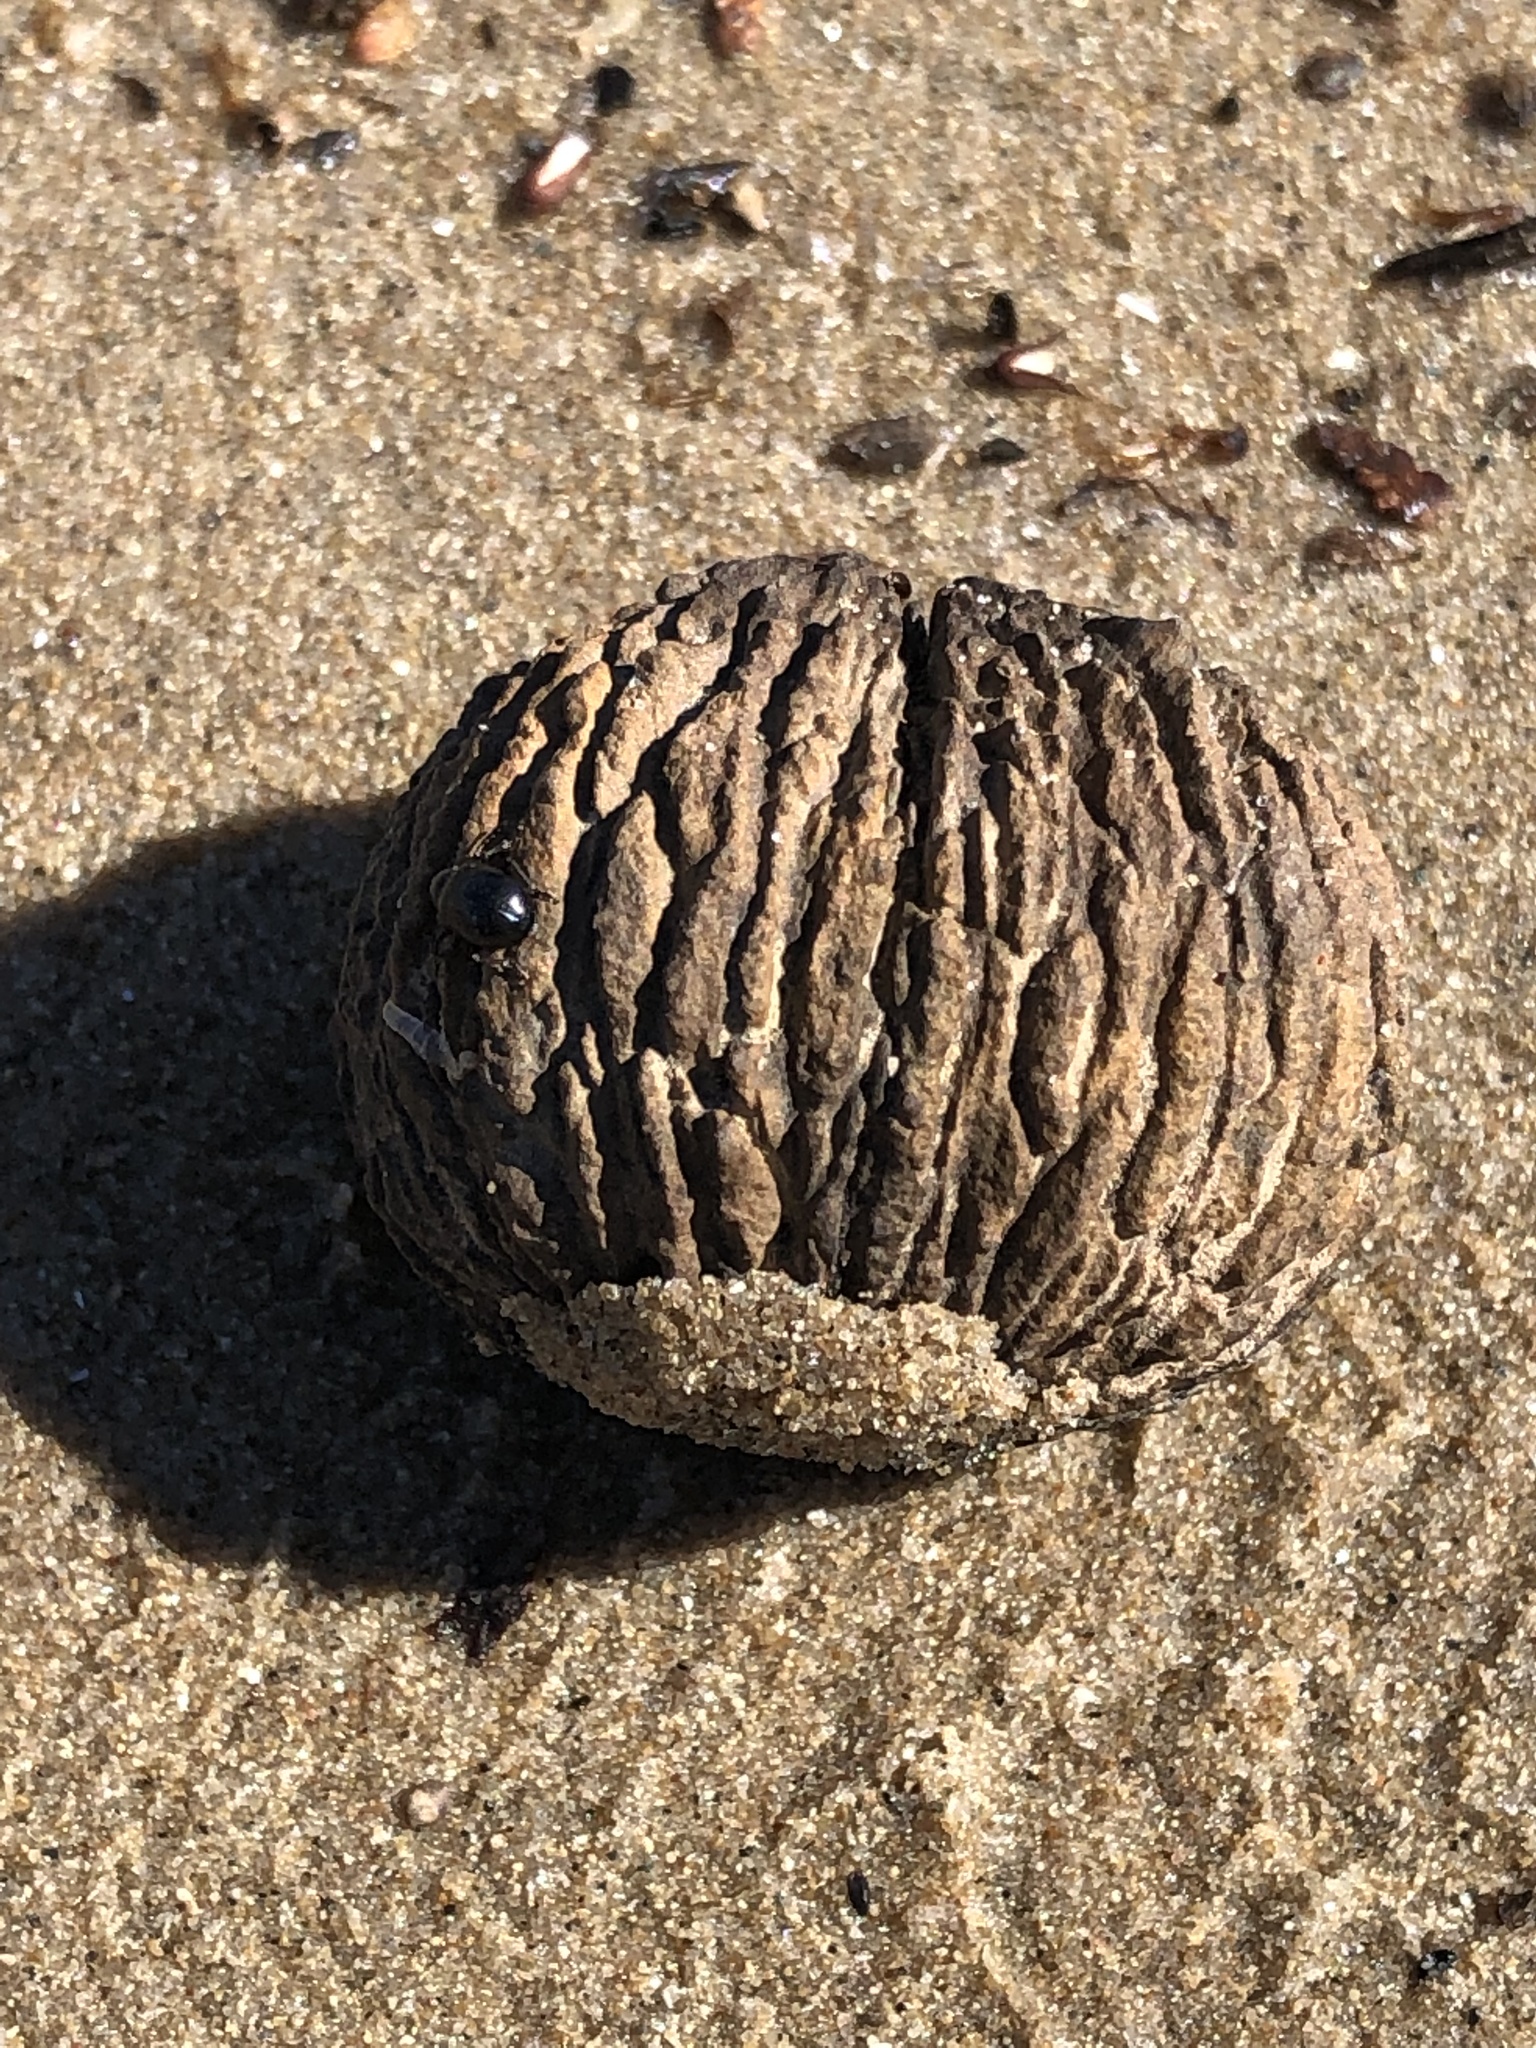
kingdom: Plantae
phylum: Tracheophyta
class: Magnoliopsida
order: Fagales
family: Juglandaceae
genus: Juglans
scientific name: Juglans nigra
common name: Black walnut
